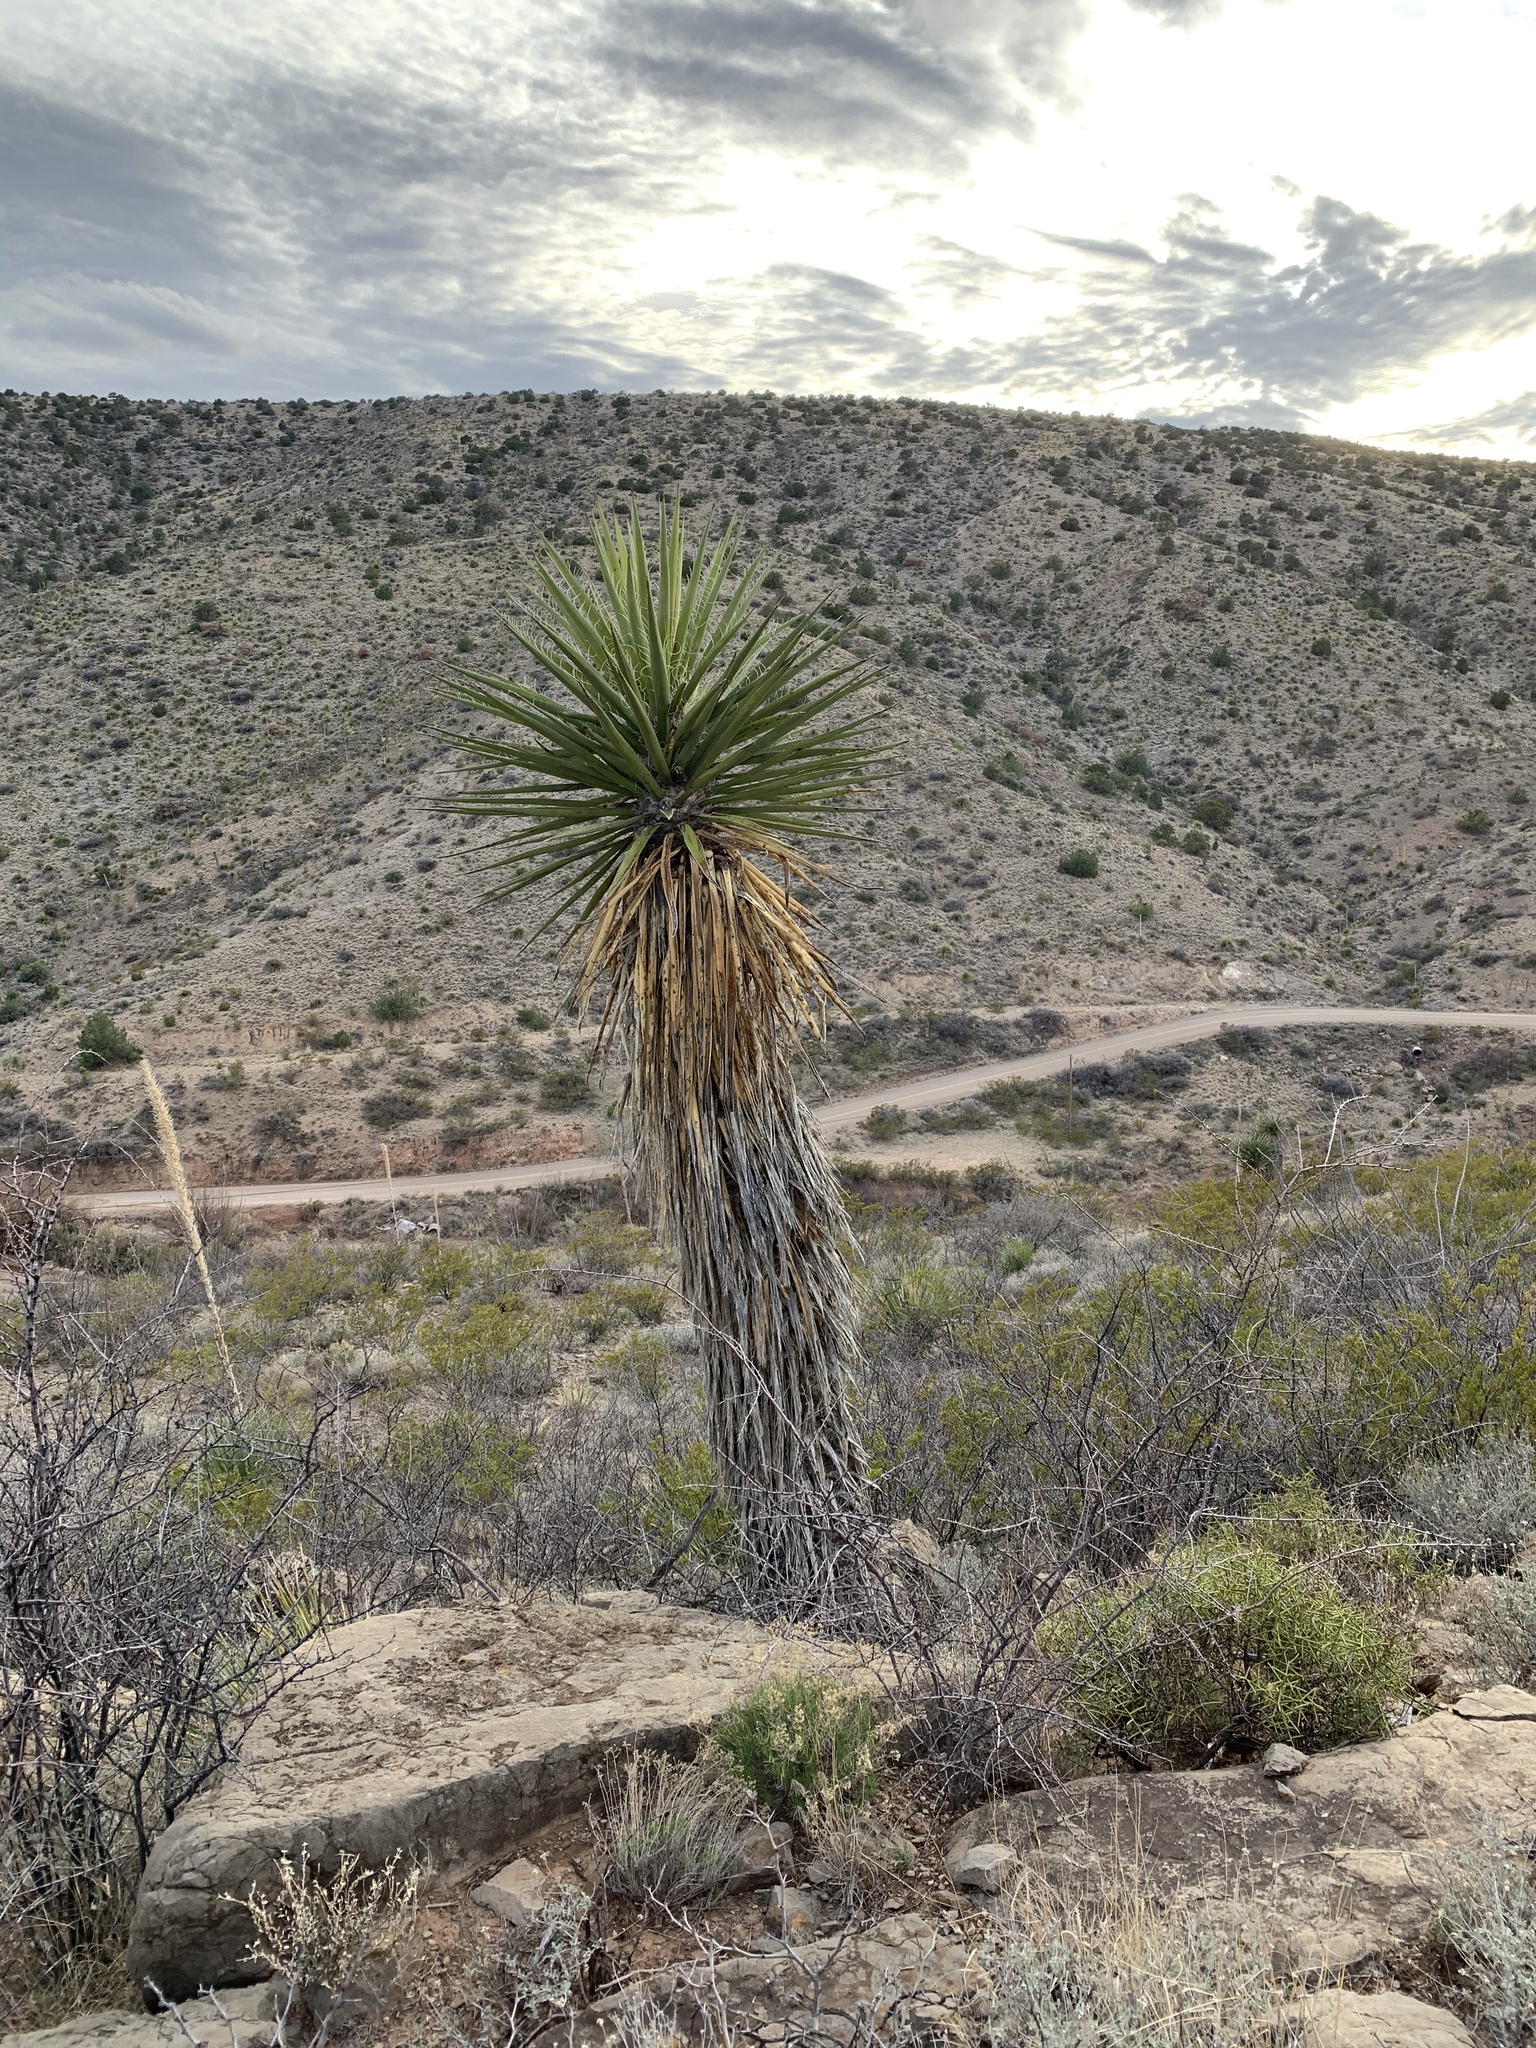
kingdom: Plantae
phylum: Tracheophyta
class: Liliopsida
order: Asparagales
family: Asparagaceae
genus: Yucca
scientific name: Yucca treculiana
